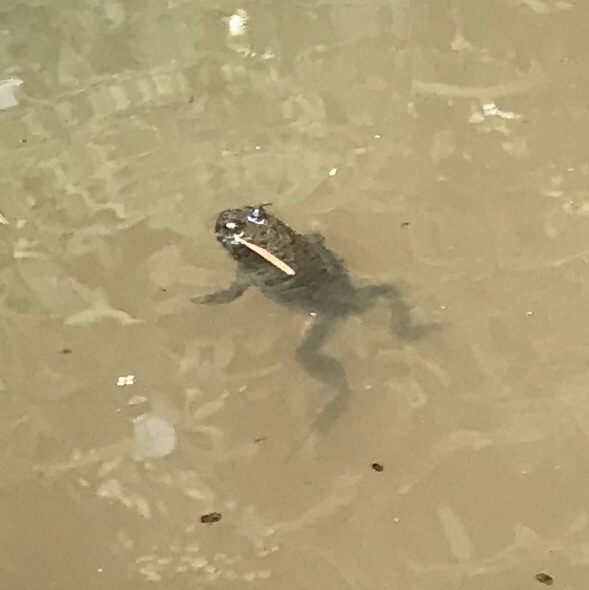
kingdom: Animalia
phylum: Chordata
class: Amphibia
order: Anura
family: Bombinatoridae
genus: Bombina
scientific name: Bombina variegata
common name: Yellow-bellied toad
